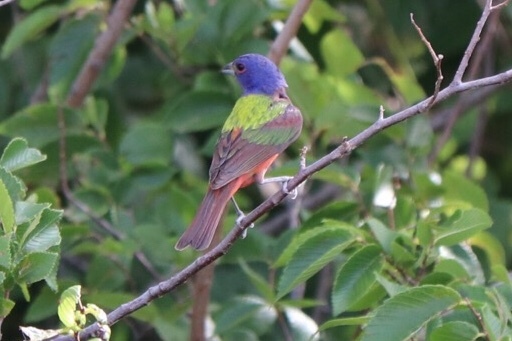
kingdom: Animalia
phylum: Chordata
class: Aves
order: Passeriformes
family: Cardinalidae
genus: Passerina
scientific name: Passerina ciris
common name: Painted bunting
